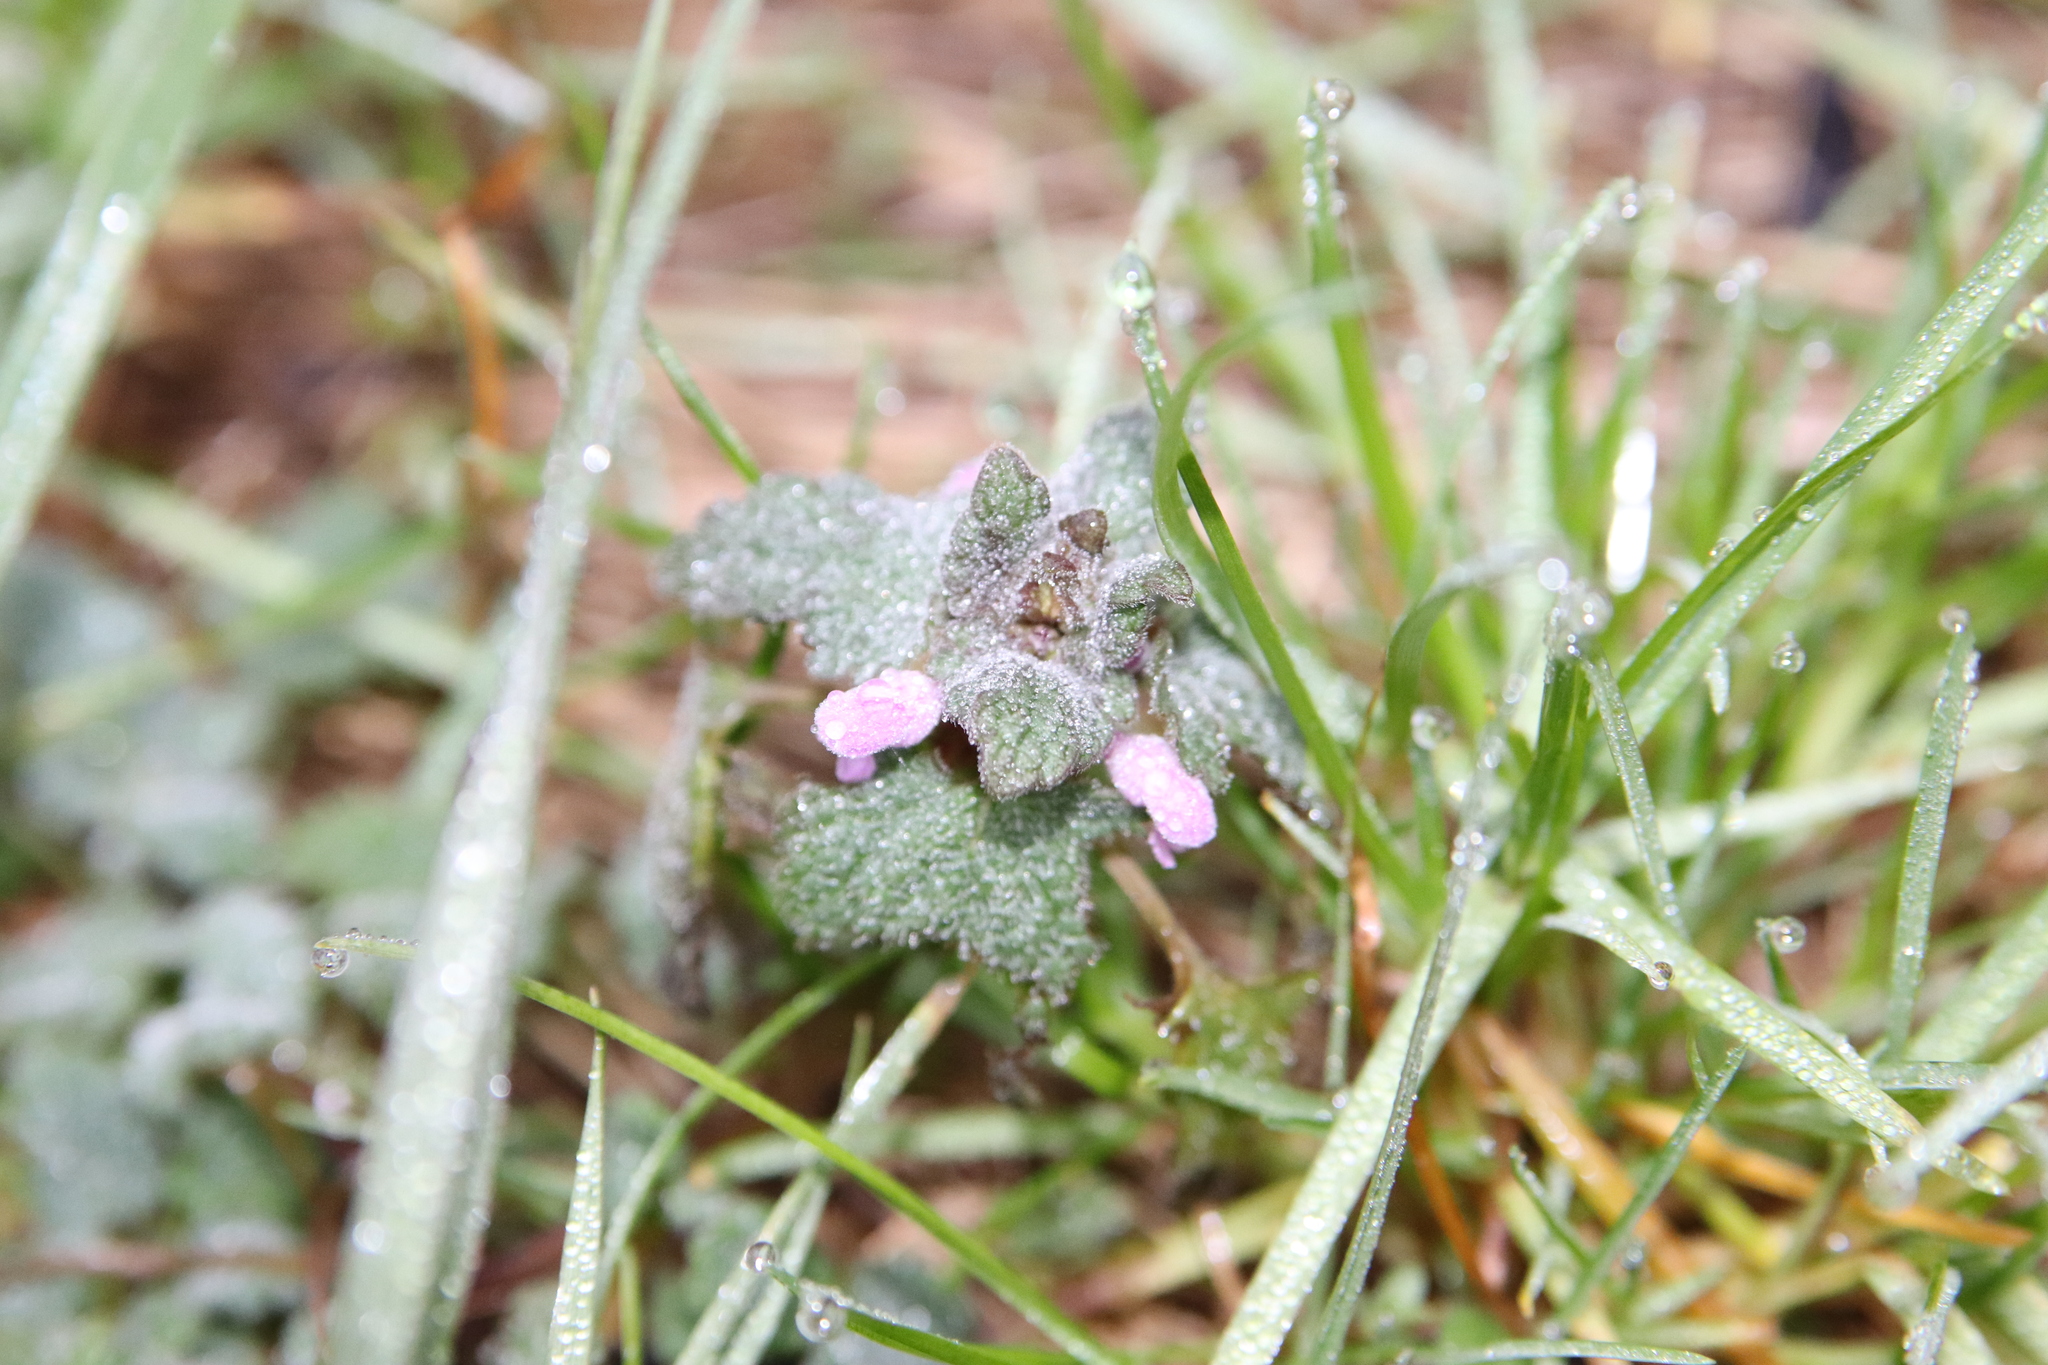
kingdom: Plantae
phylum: Tracheophyta
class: Magnoliopsida
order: Lamiales
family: Lamiaceae
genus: Lamium
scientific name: Lamium purpureum
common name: Red dead-nettle
